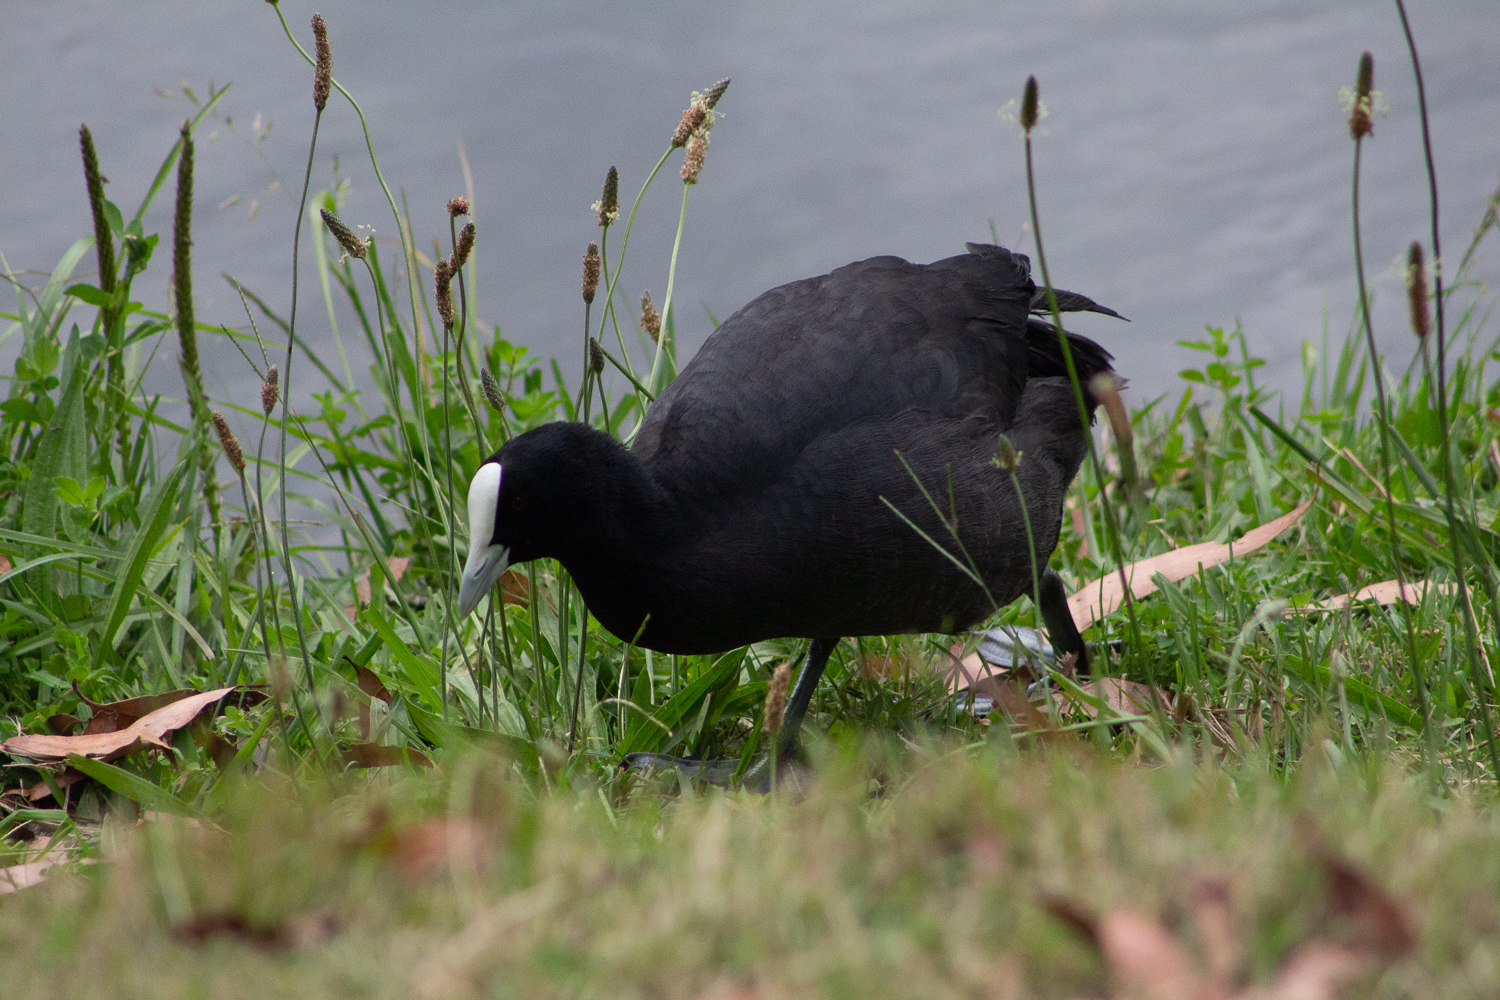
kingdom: Animalia
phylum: Chordata
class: Aves
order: Gruiformes
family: Rallidae
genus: Fulica
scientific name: Fulica atra
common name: Eurasian coot
